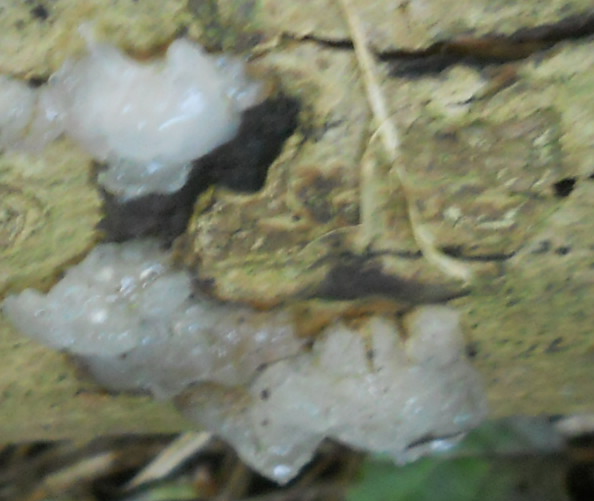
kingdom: Fungi
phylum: Basidiomycota
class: Agaricomycetes
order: Auriculariales
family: Hyaloriaceae
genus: Myxarium
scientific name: Myxarium nucleatum
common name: Crystal brain fungus
